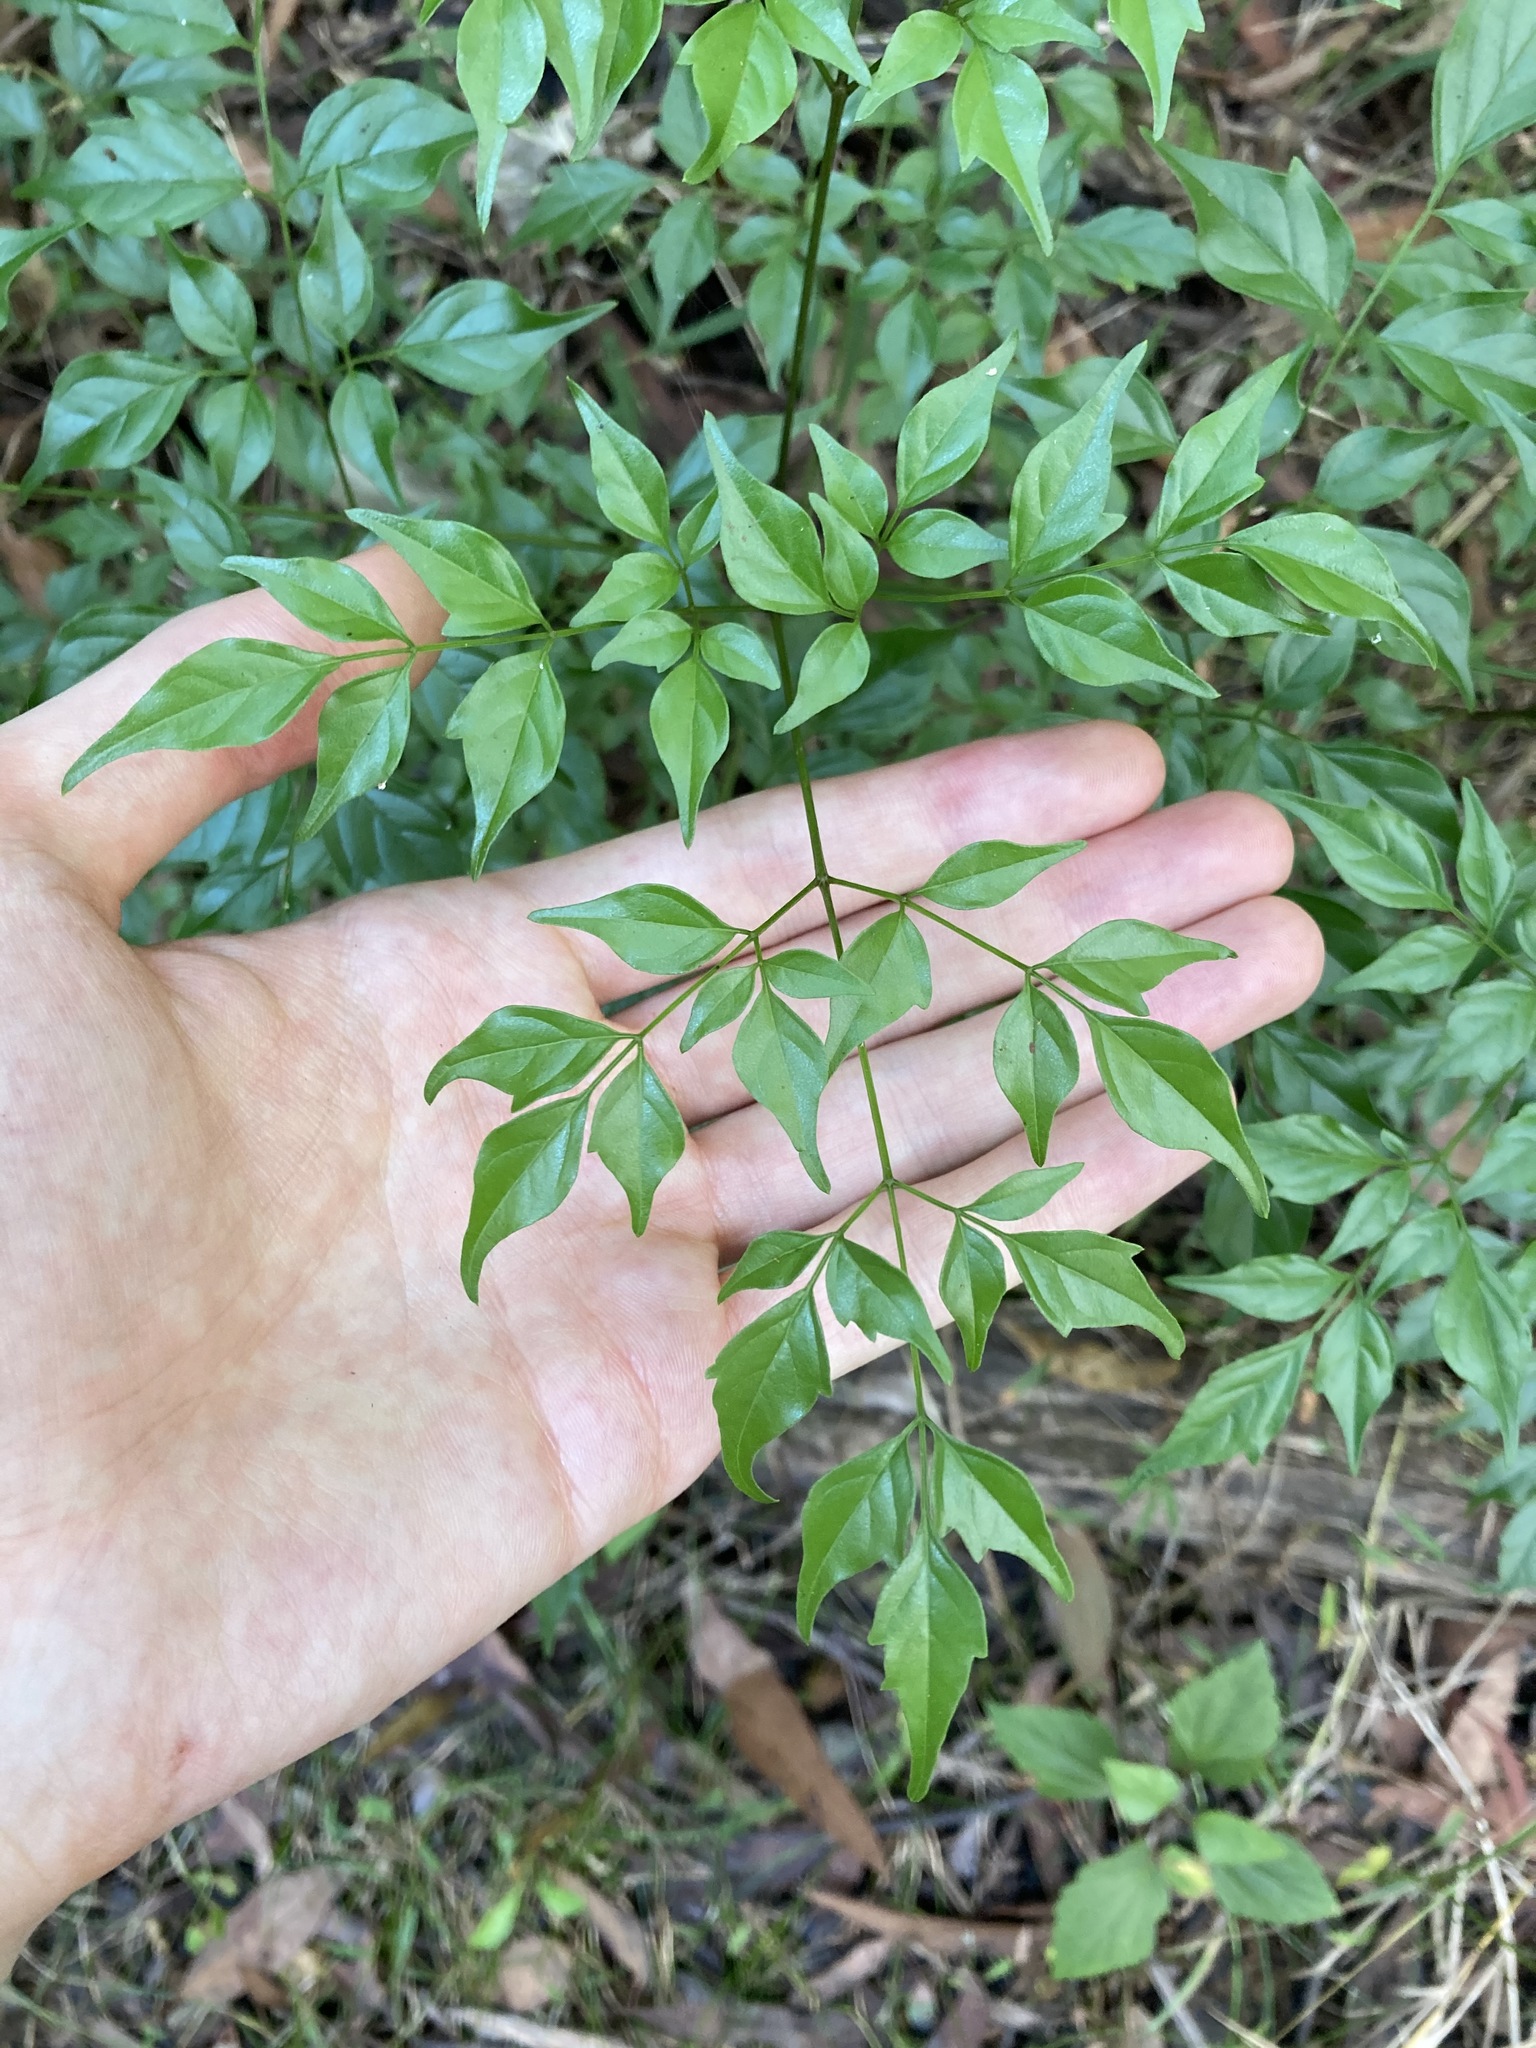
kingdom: Plantae
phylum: Tracheophyta
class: Magnoliopsida
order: Lamiales
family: Bignoniaceae
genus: Radermachera
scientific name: Radermachera sinica
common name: China doll plant
